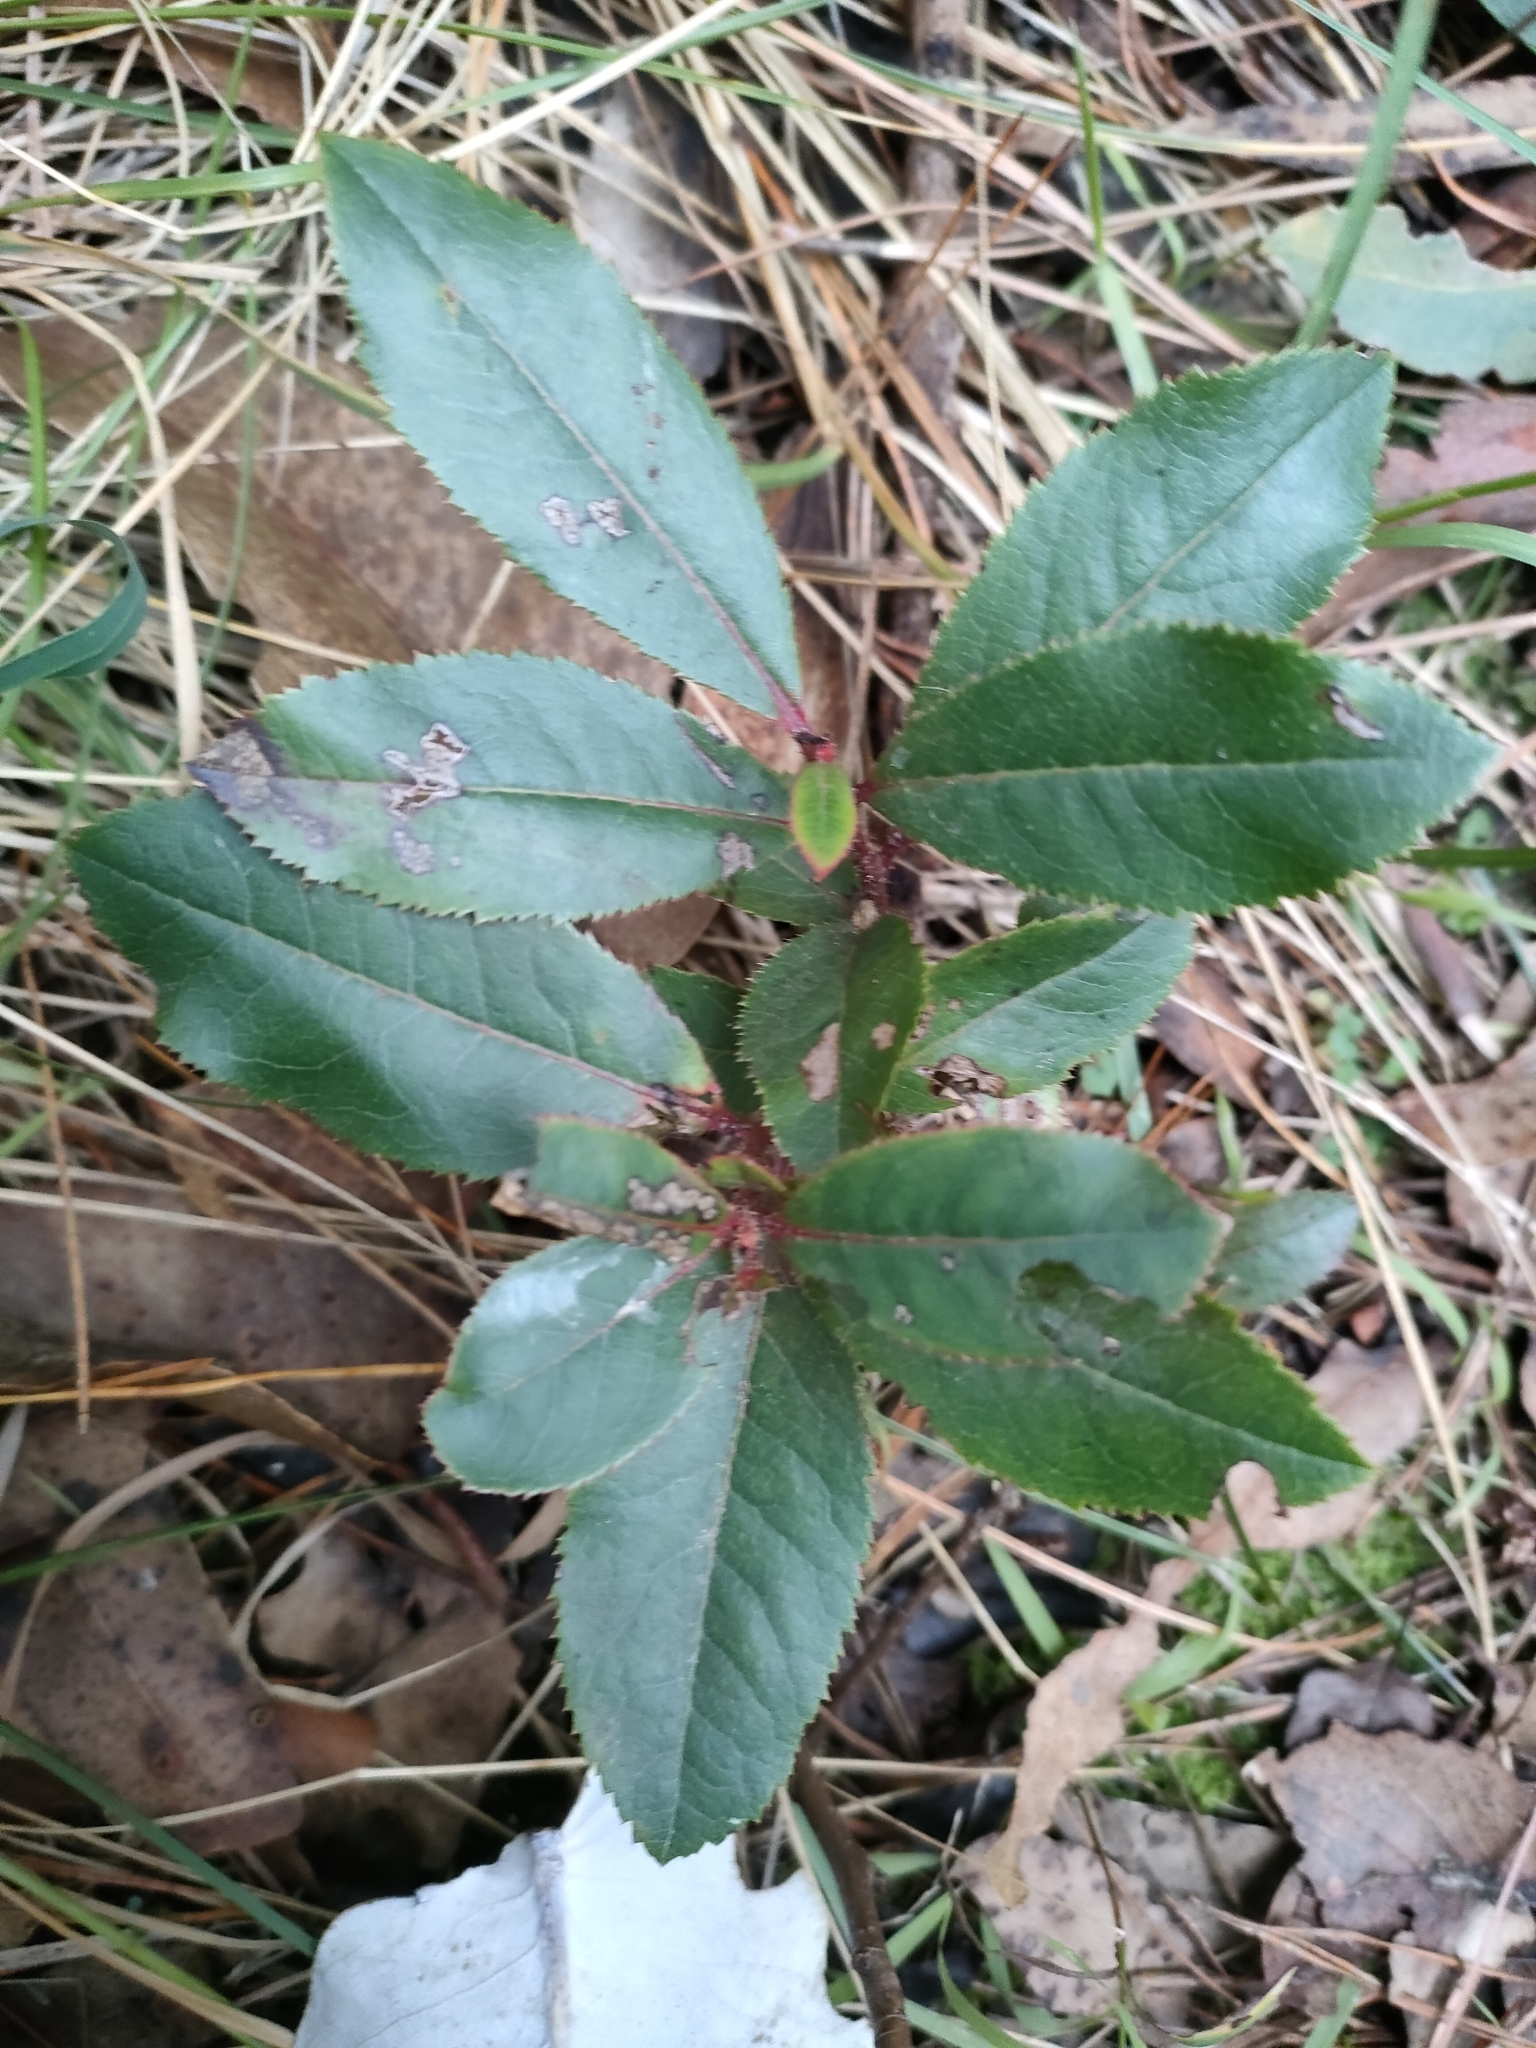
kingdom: Plantae
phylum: Tracheophyta
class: Magnoliopsida
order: Ericales
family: Ericaceae
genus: Arbutus
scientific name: Arbutus unedo
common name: Strawberry-tree
